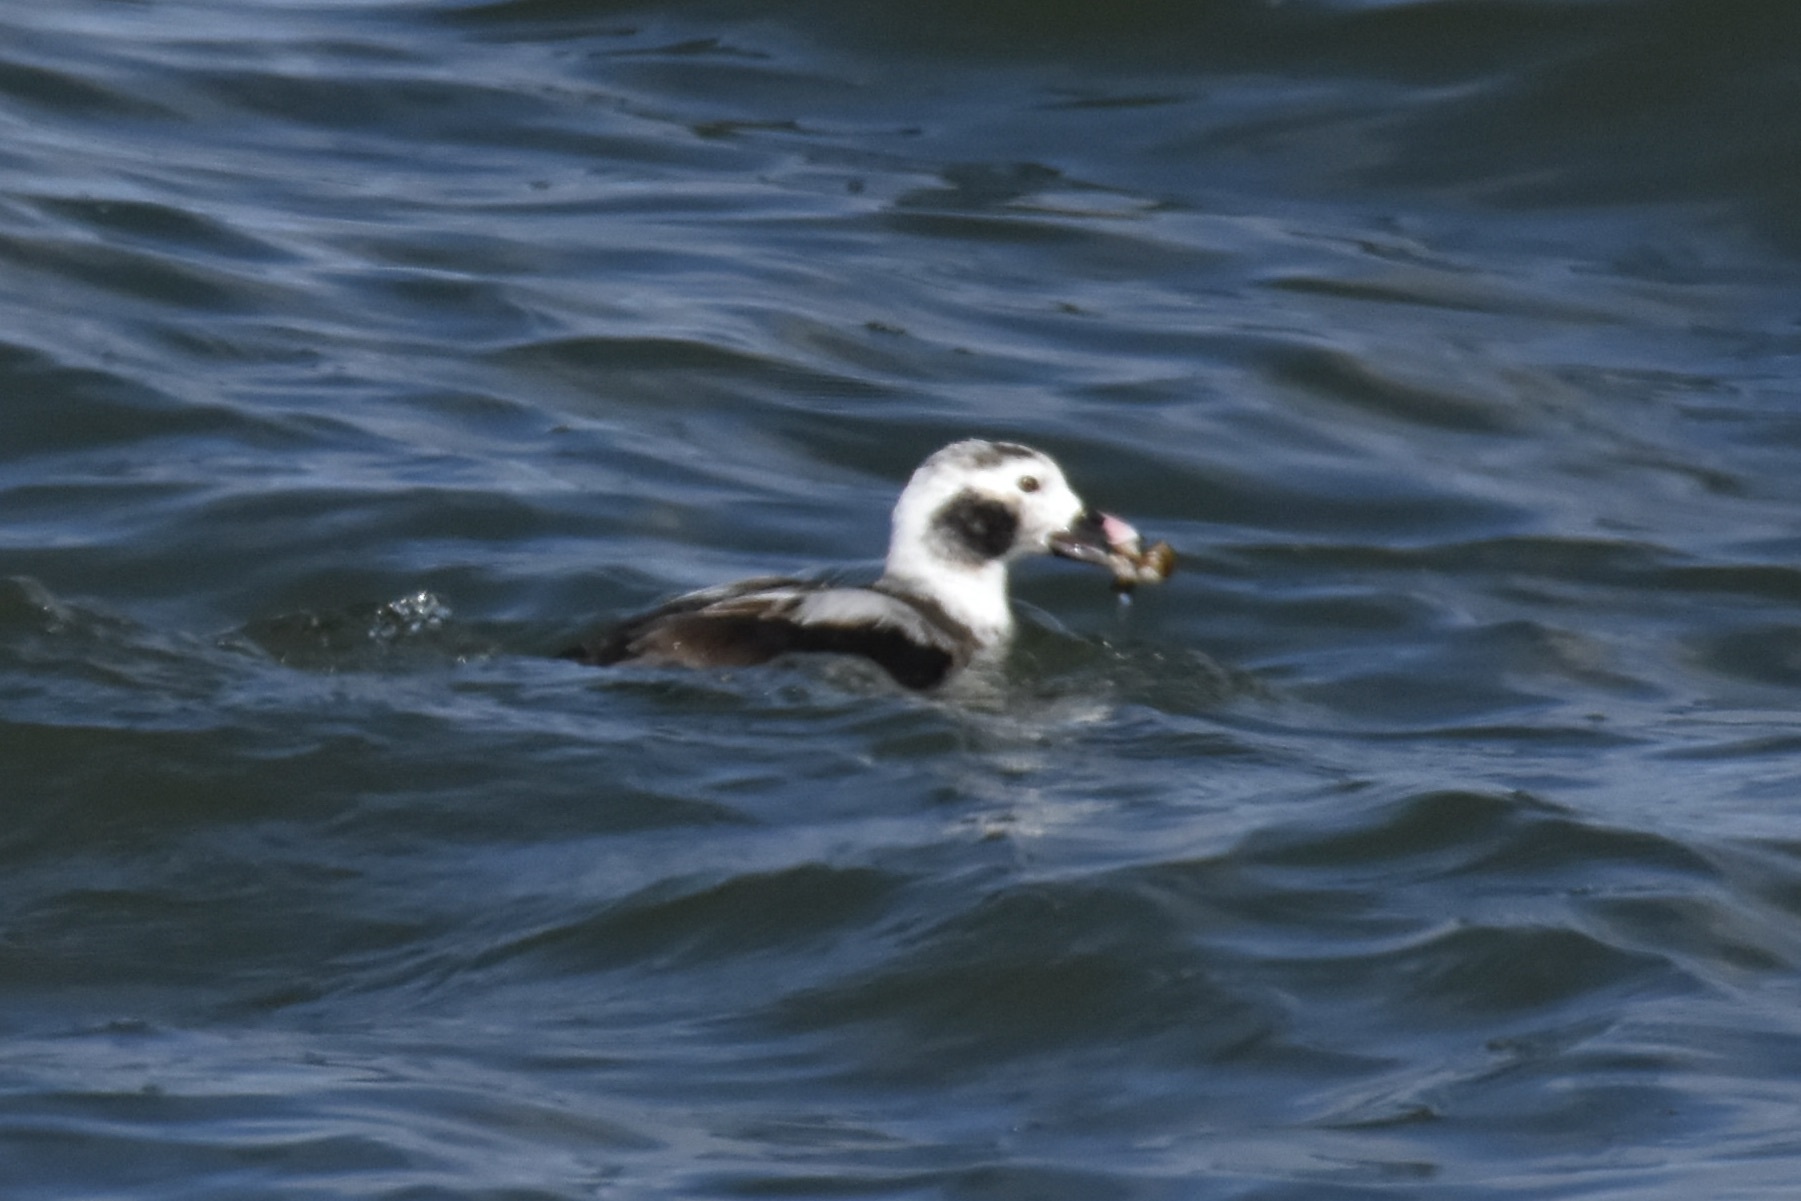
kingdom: Animalia
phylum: Chordata
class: Aves
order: Anseriformes
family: Anatidae
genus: Clangula
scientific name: Clangula hyemalis
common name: Long-tailed duck
